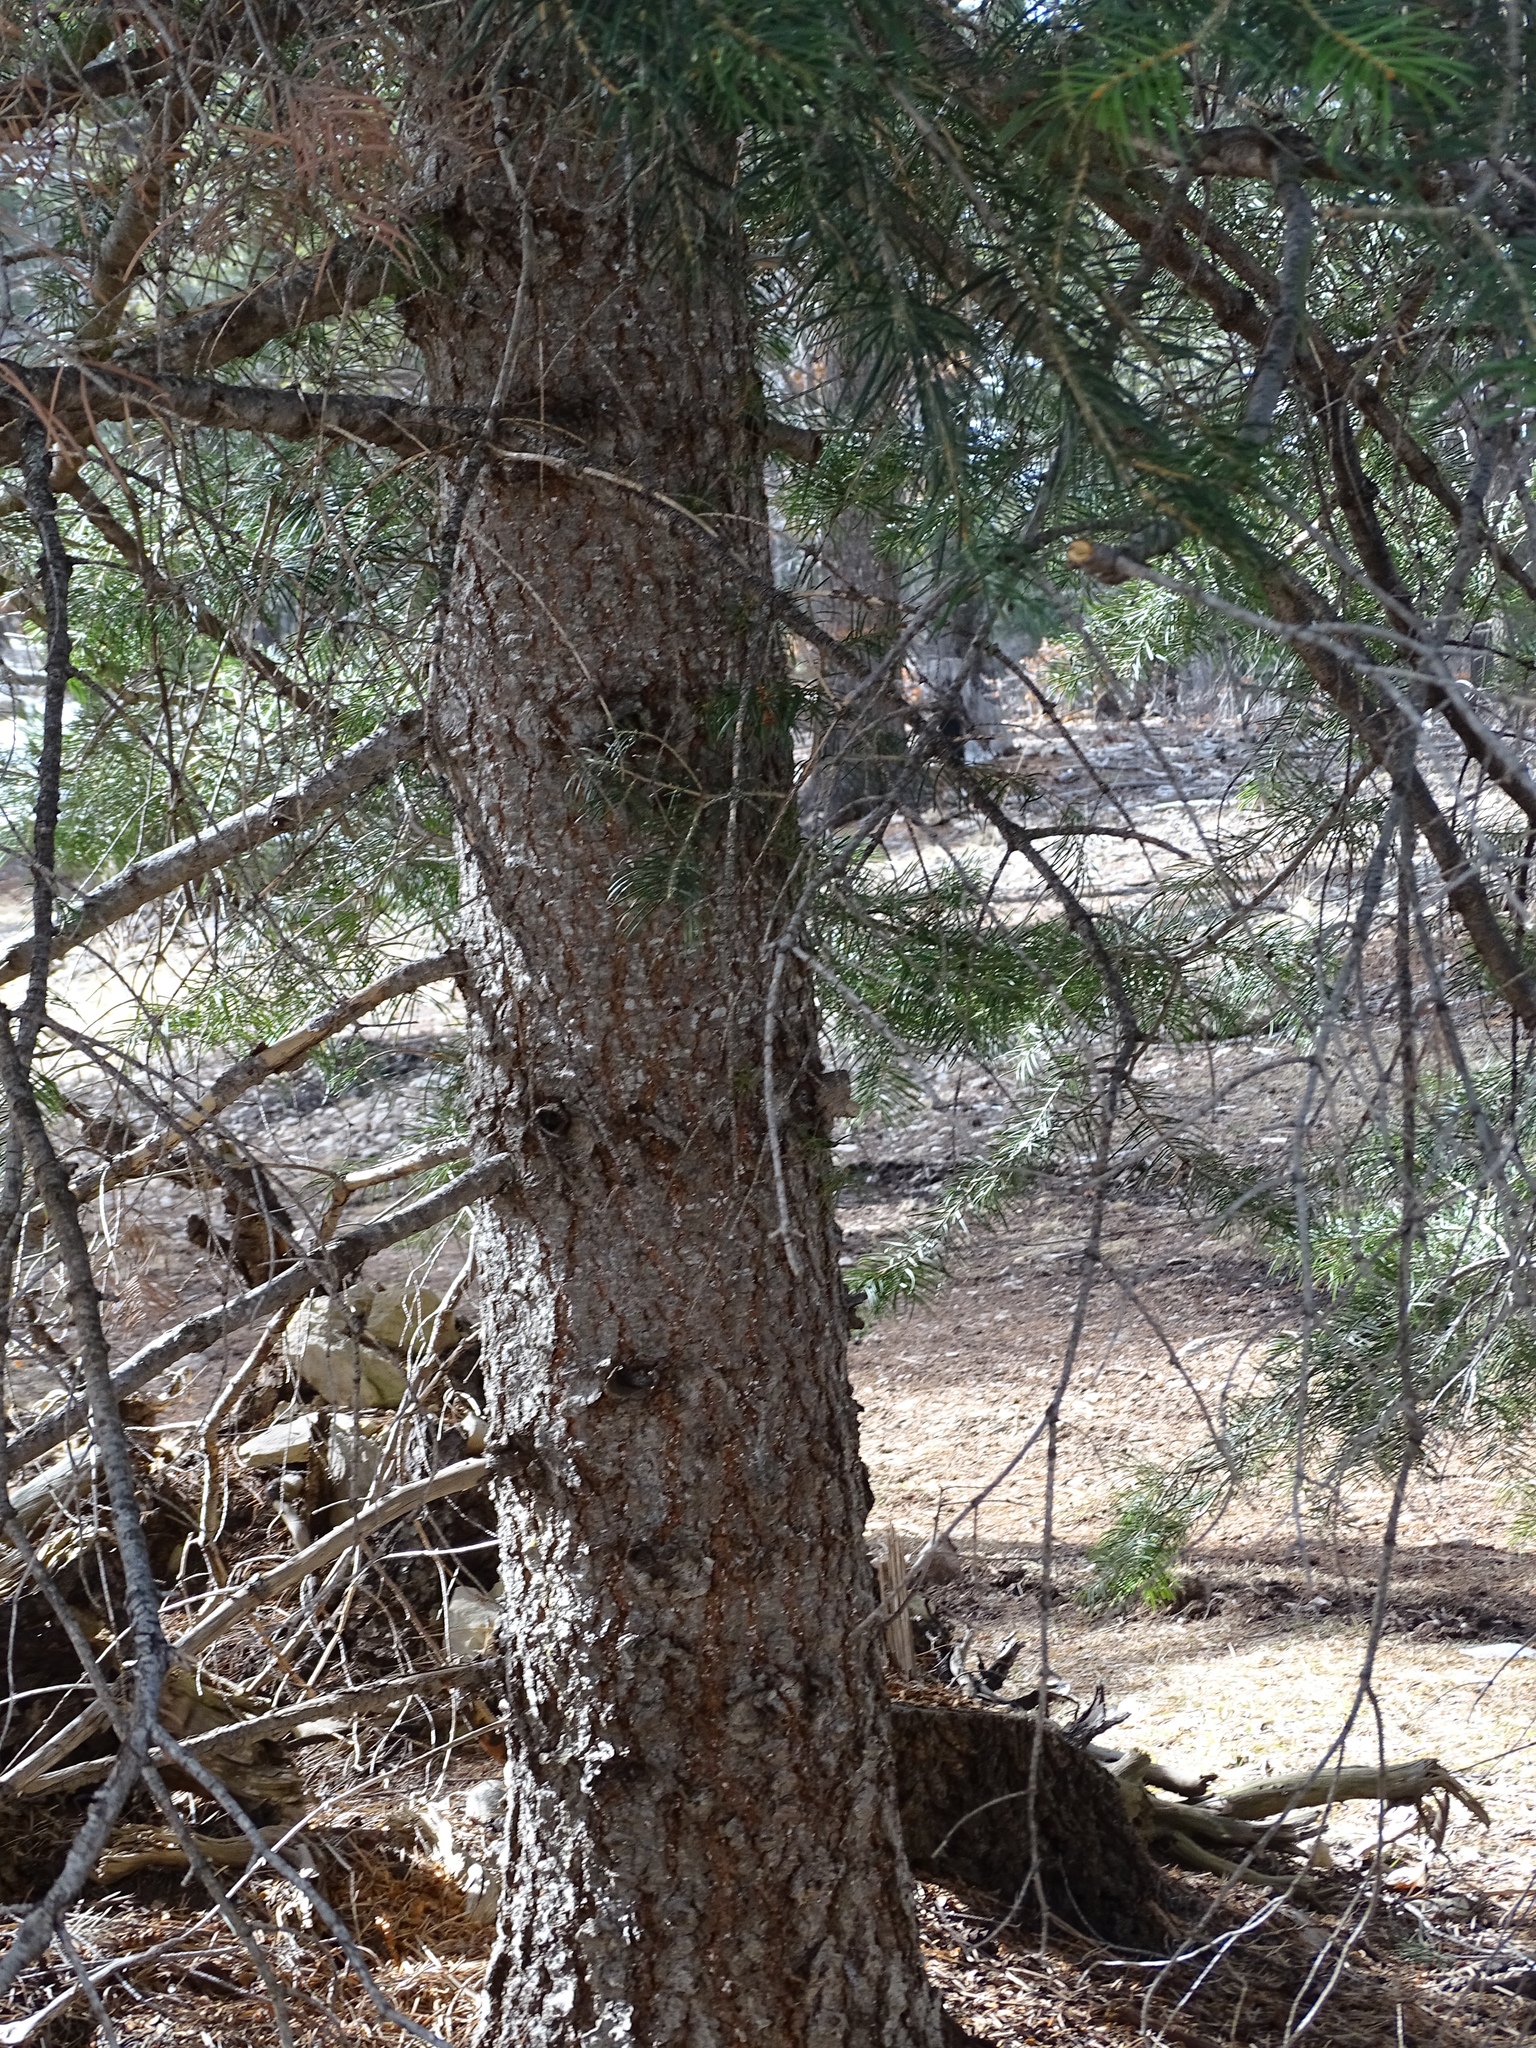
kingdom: Plantae
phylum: Tracheophyta
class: Pinopsida
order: Pinales
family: Pinaceae
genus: Abies
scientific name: Abies concolor
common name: Colorado fir
